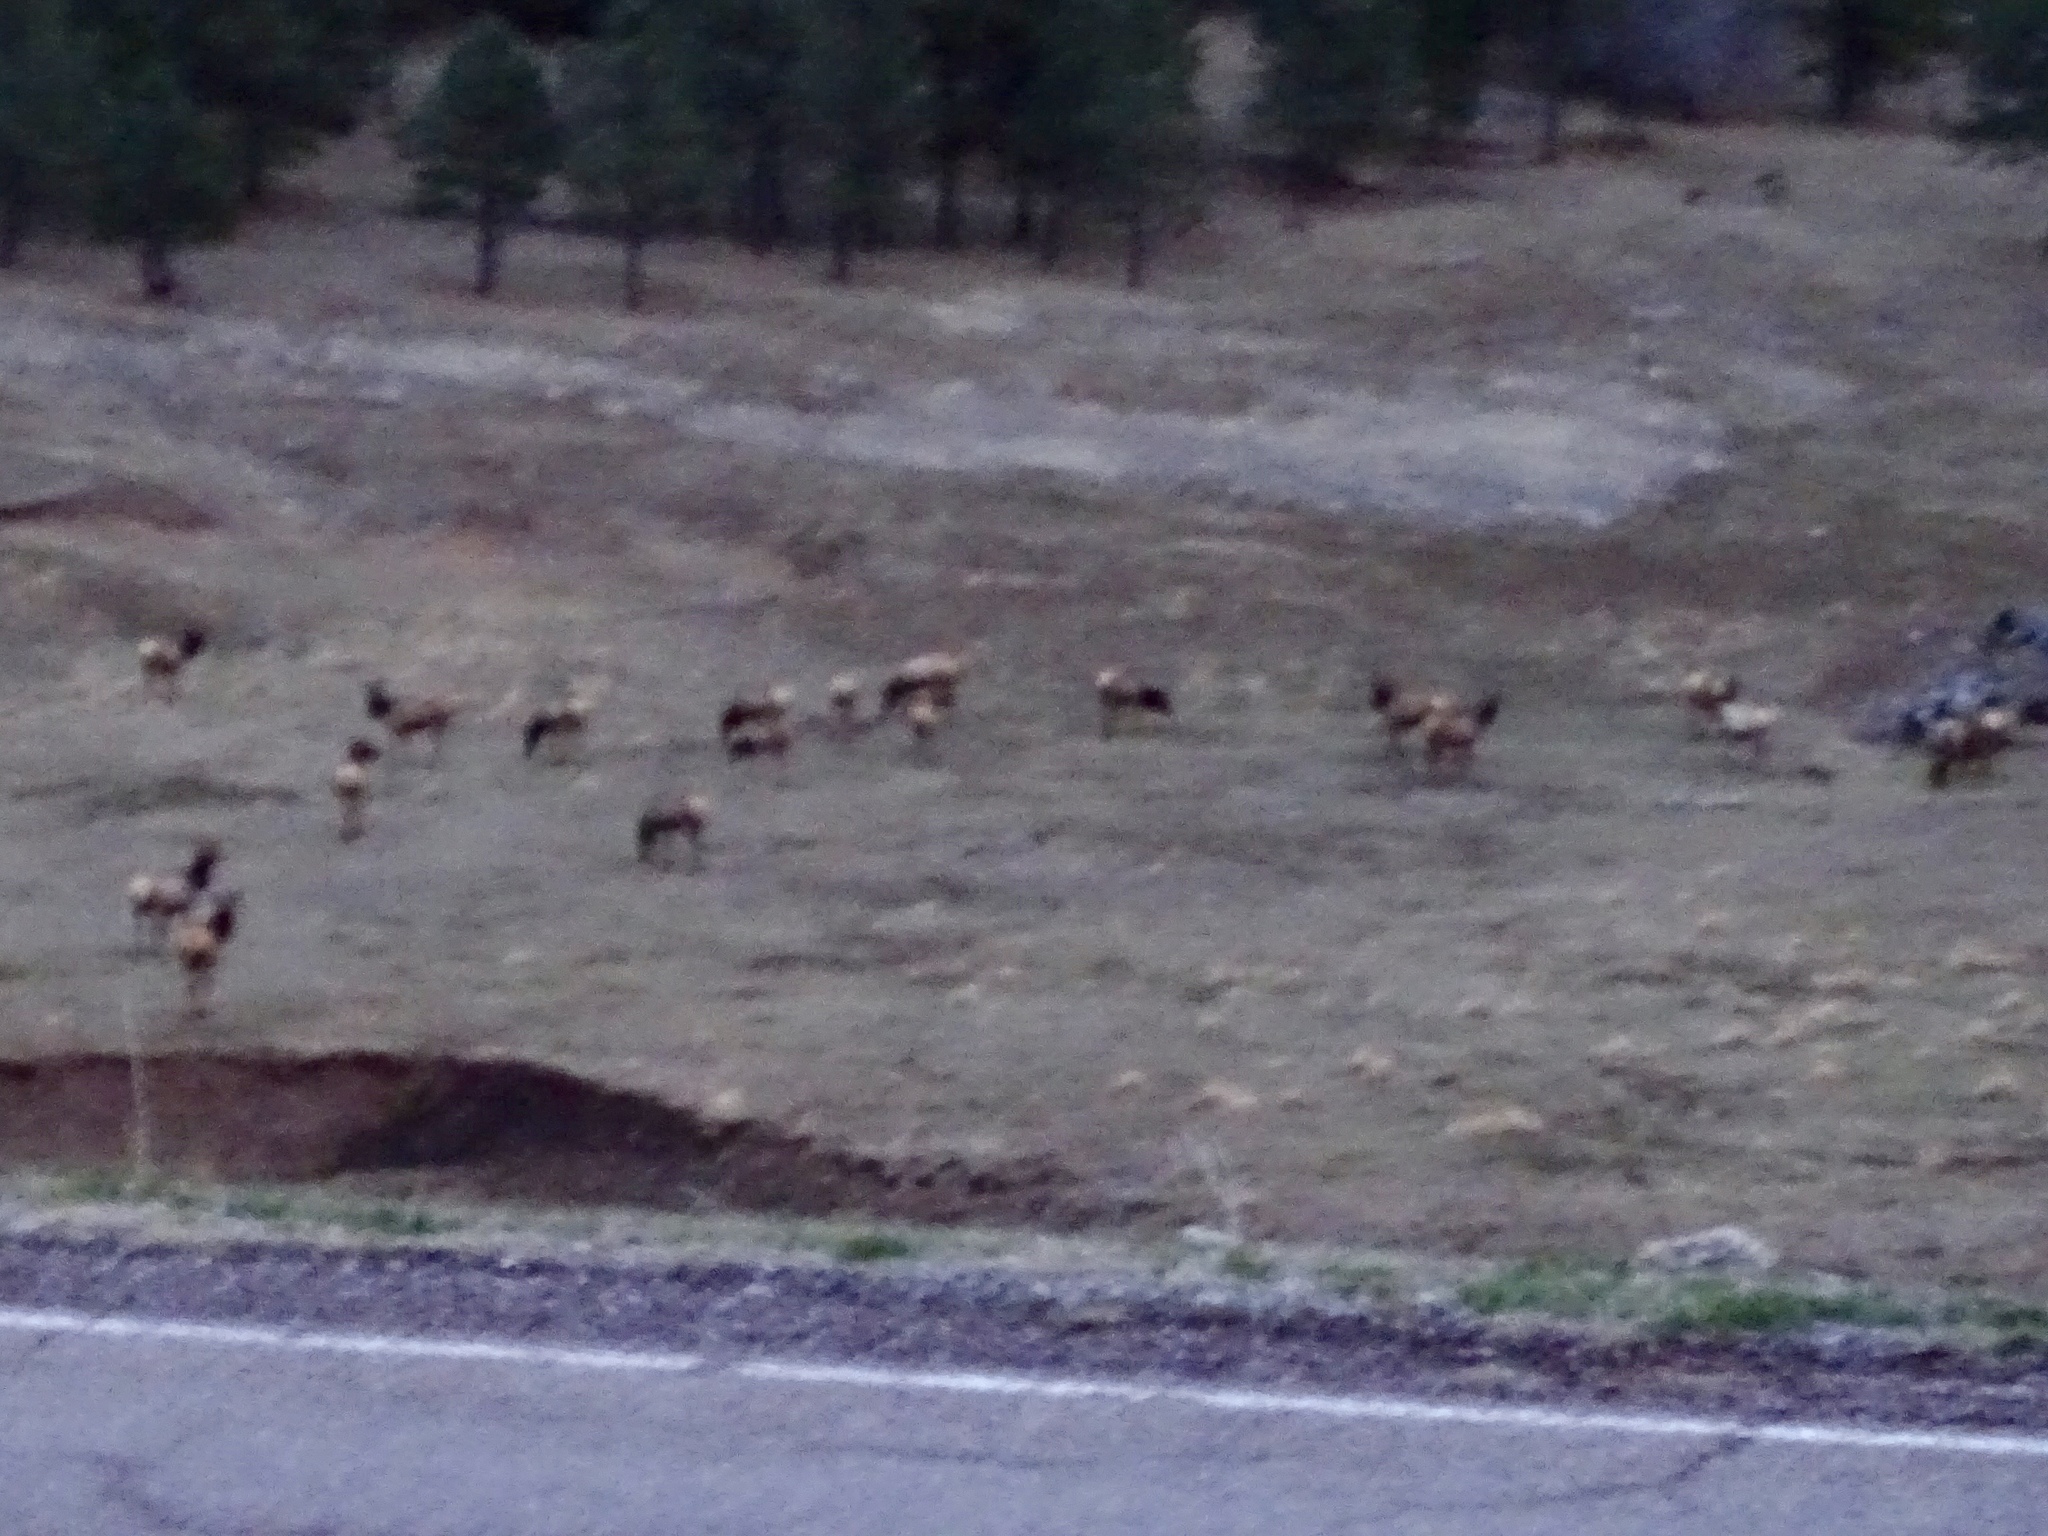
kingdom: Animalia
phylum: Chordata
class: Mammalia
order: Artiodactyla
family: Cervidae
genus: Cervus
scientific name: Cervus elaphus
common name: Red deer
